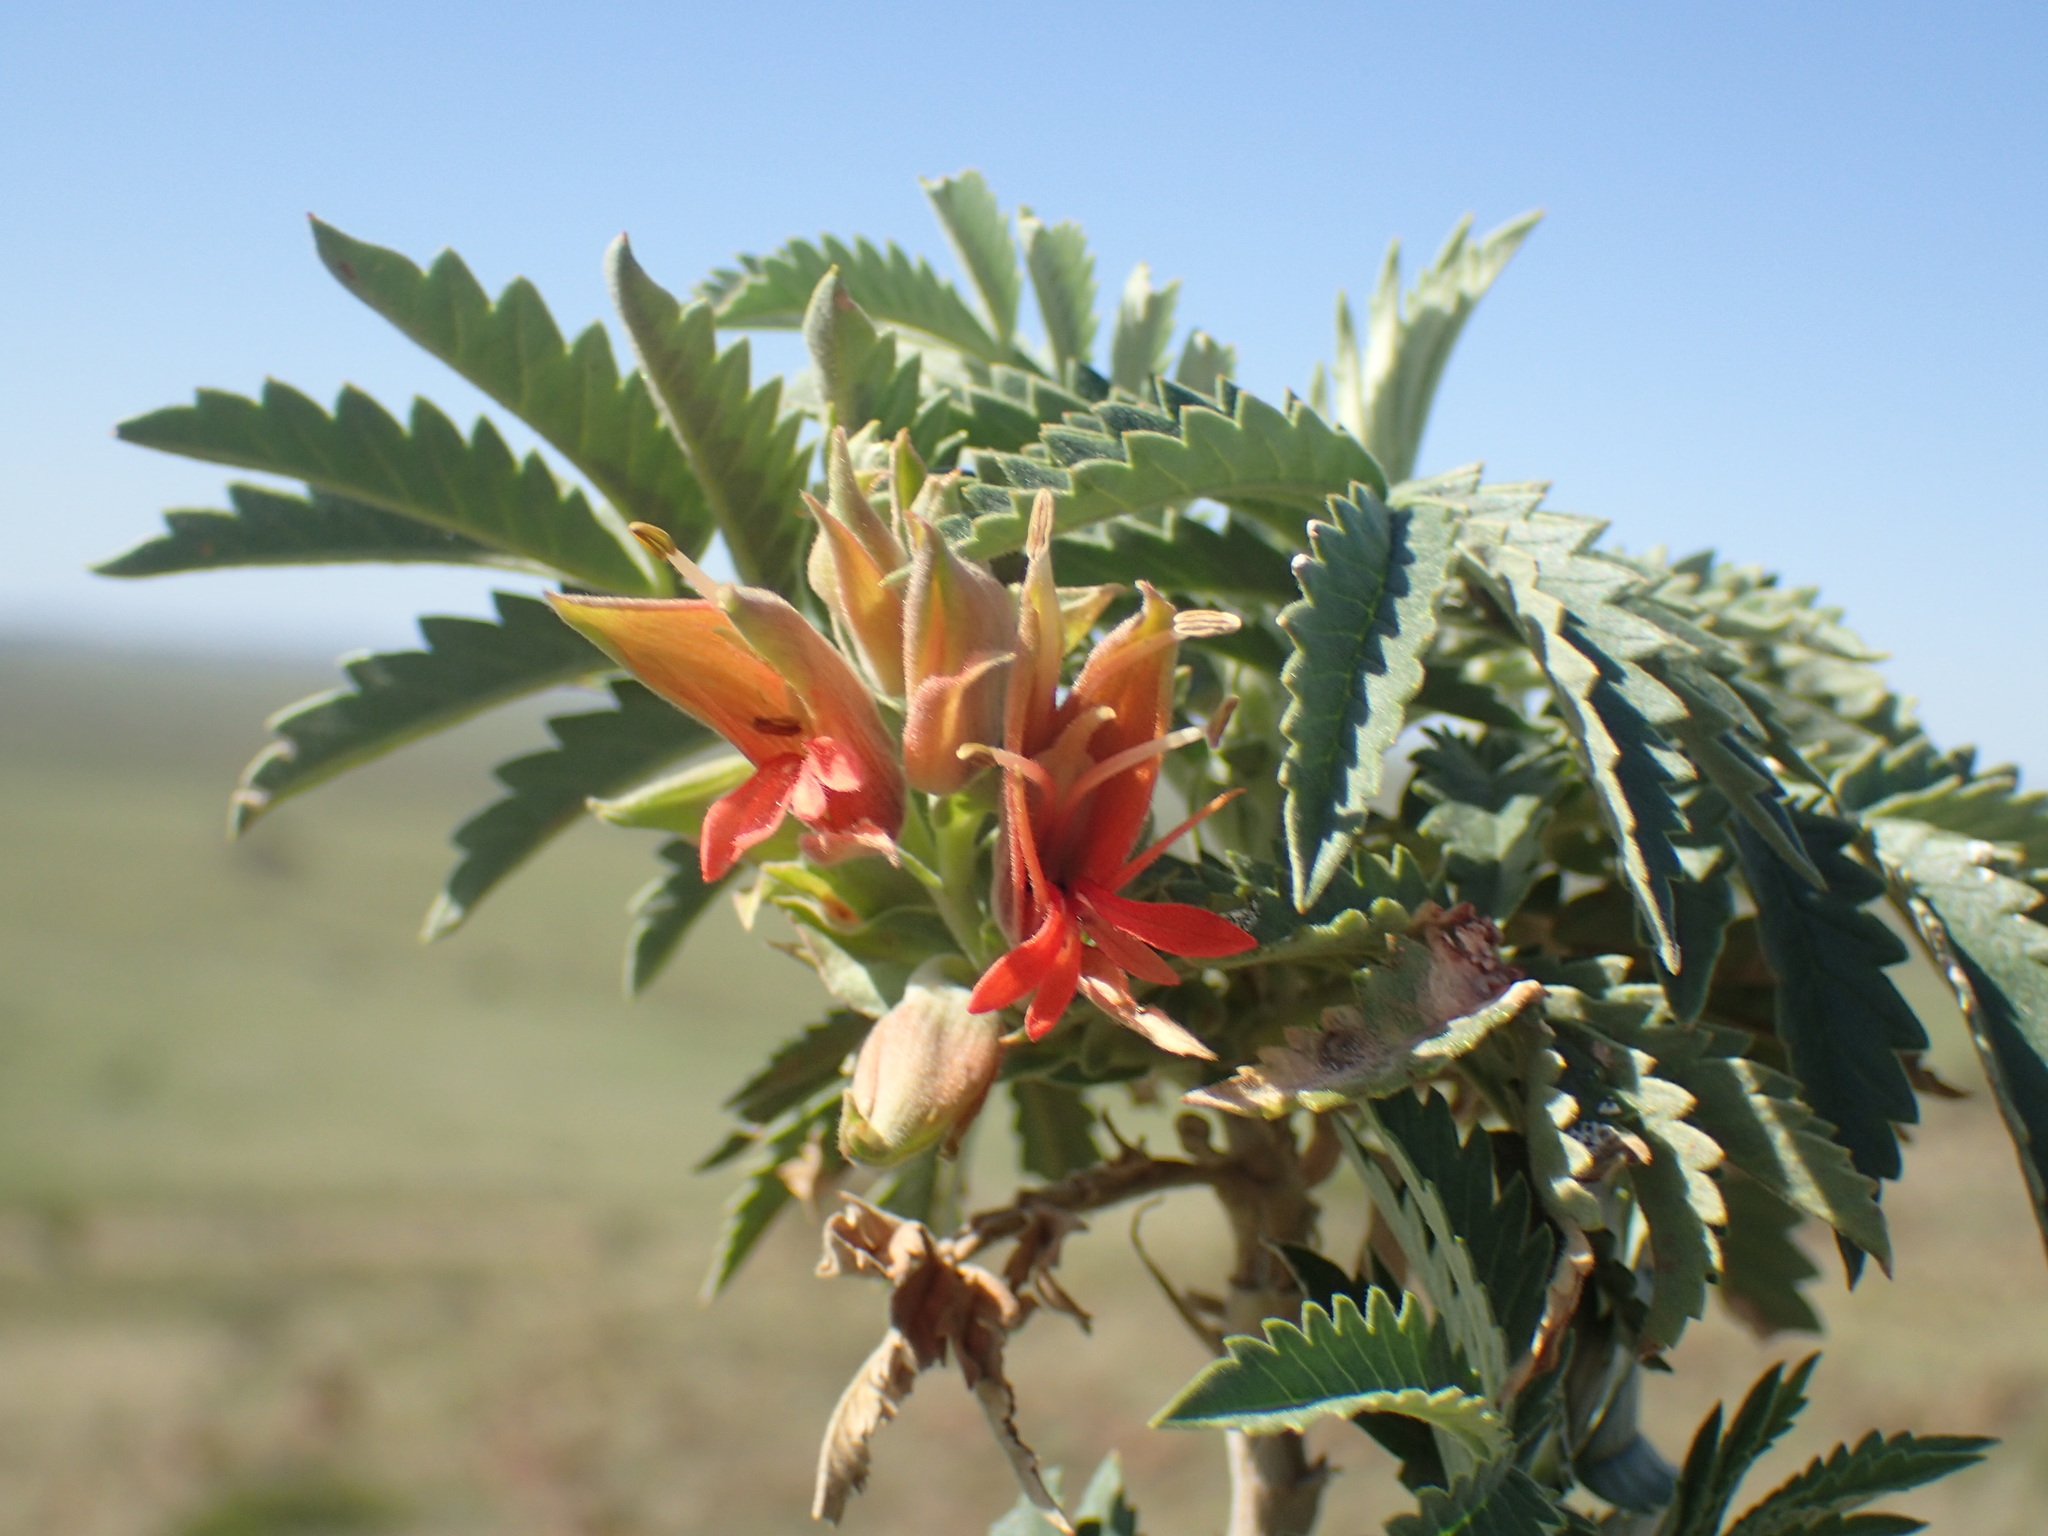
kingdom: Plantae
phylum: Tracheophyta
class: Magnoliopsida
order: Geraniales
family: Melianthaceae
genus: Melianthus
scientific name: Melianthus comosus
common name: Touch-me-not
